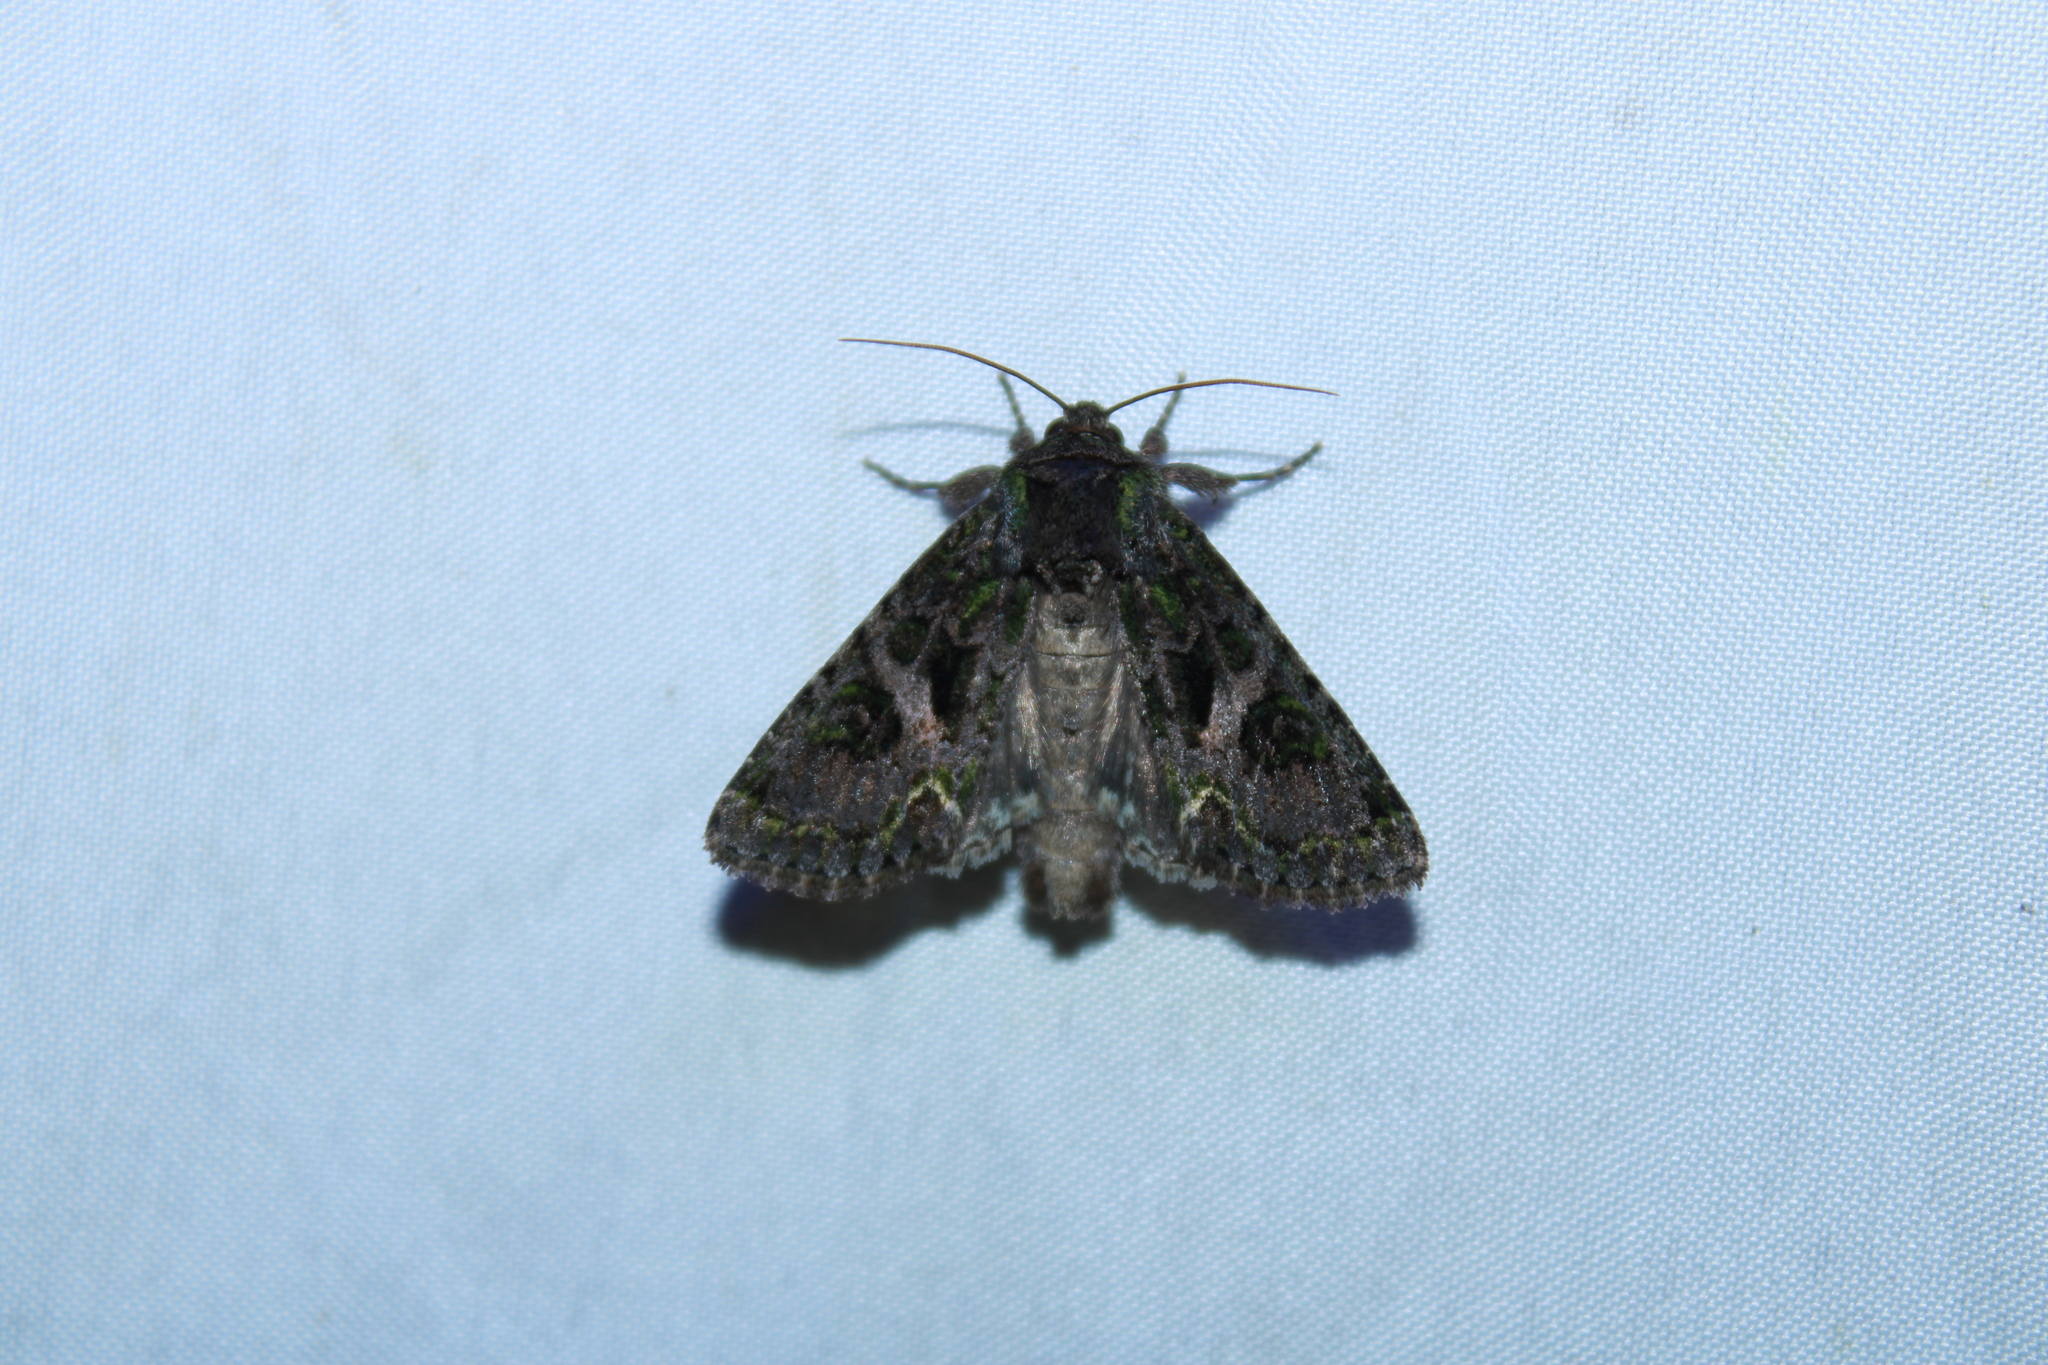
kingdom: Animalia
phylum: Arthropoda
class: Insecta
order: Lepidoptera
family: Noctuidae
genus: Trachea
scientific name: Trachea delicata
